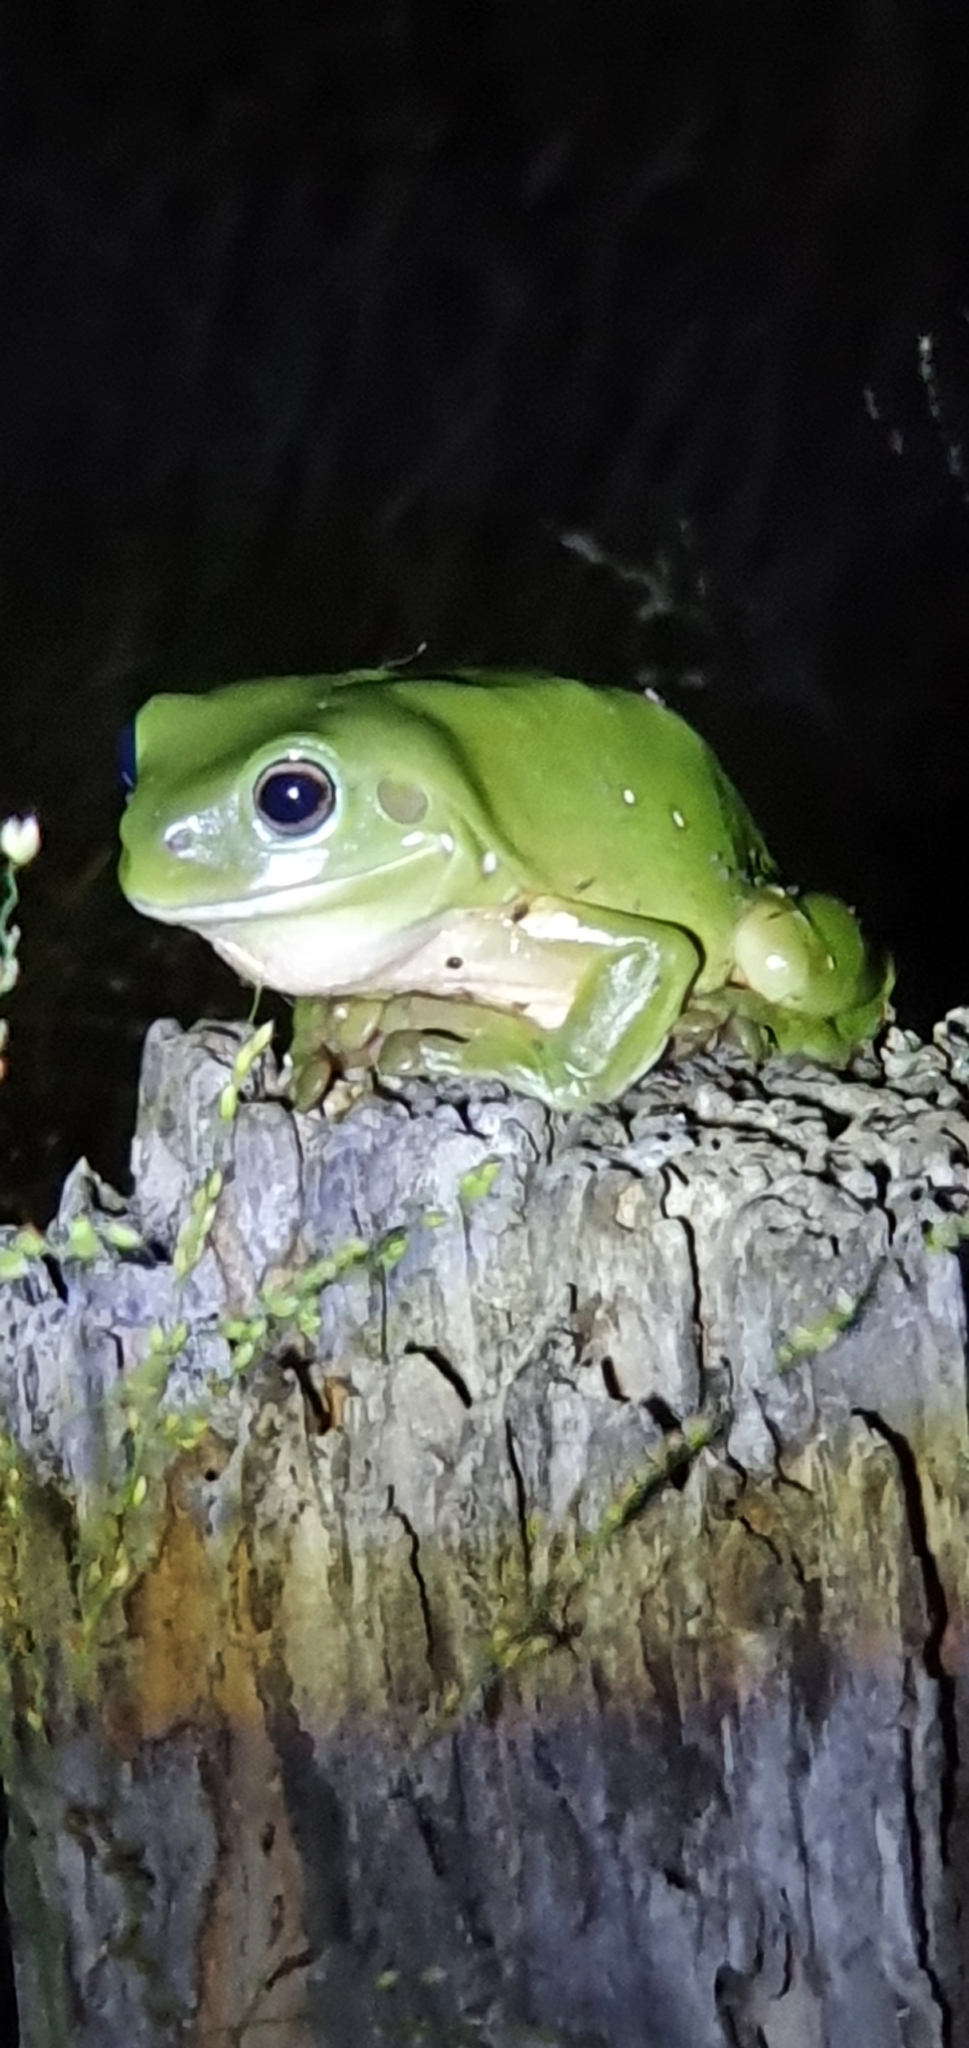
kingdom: Animalia
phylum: Chordata
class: Amphibia
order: Anura
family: Pelodryadidae
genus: Ranoidea
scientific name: Ranoidea caerulea
